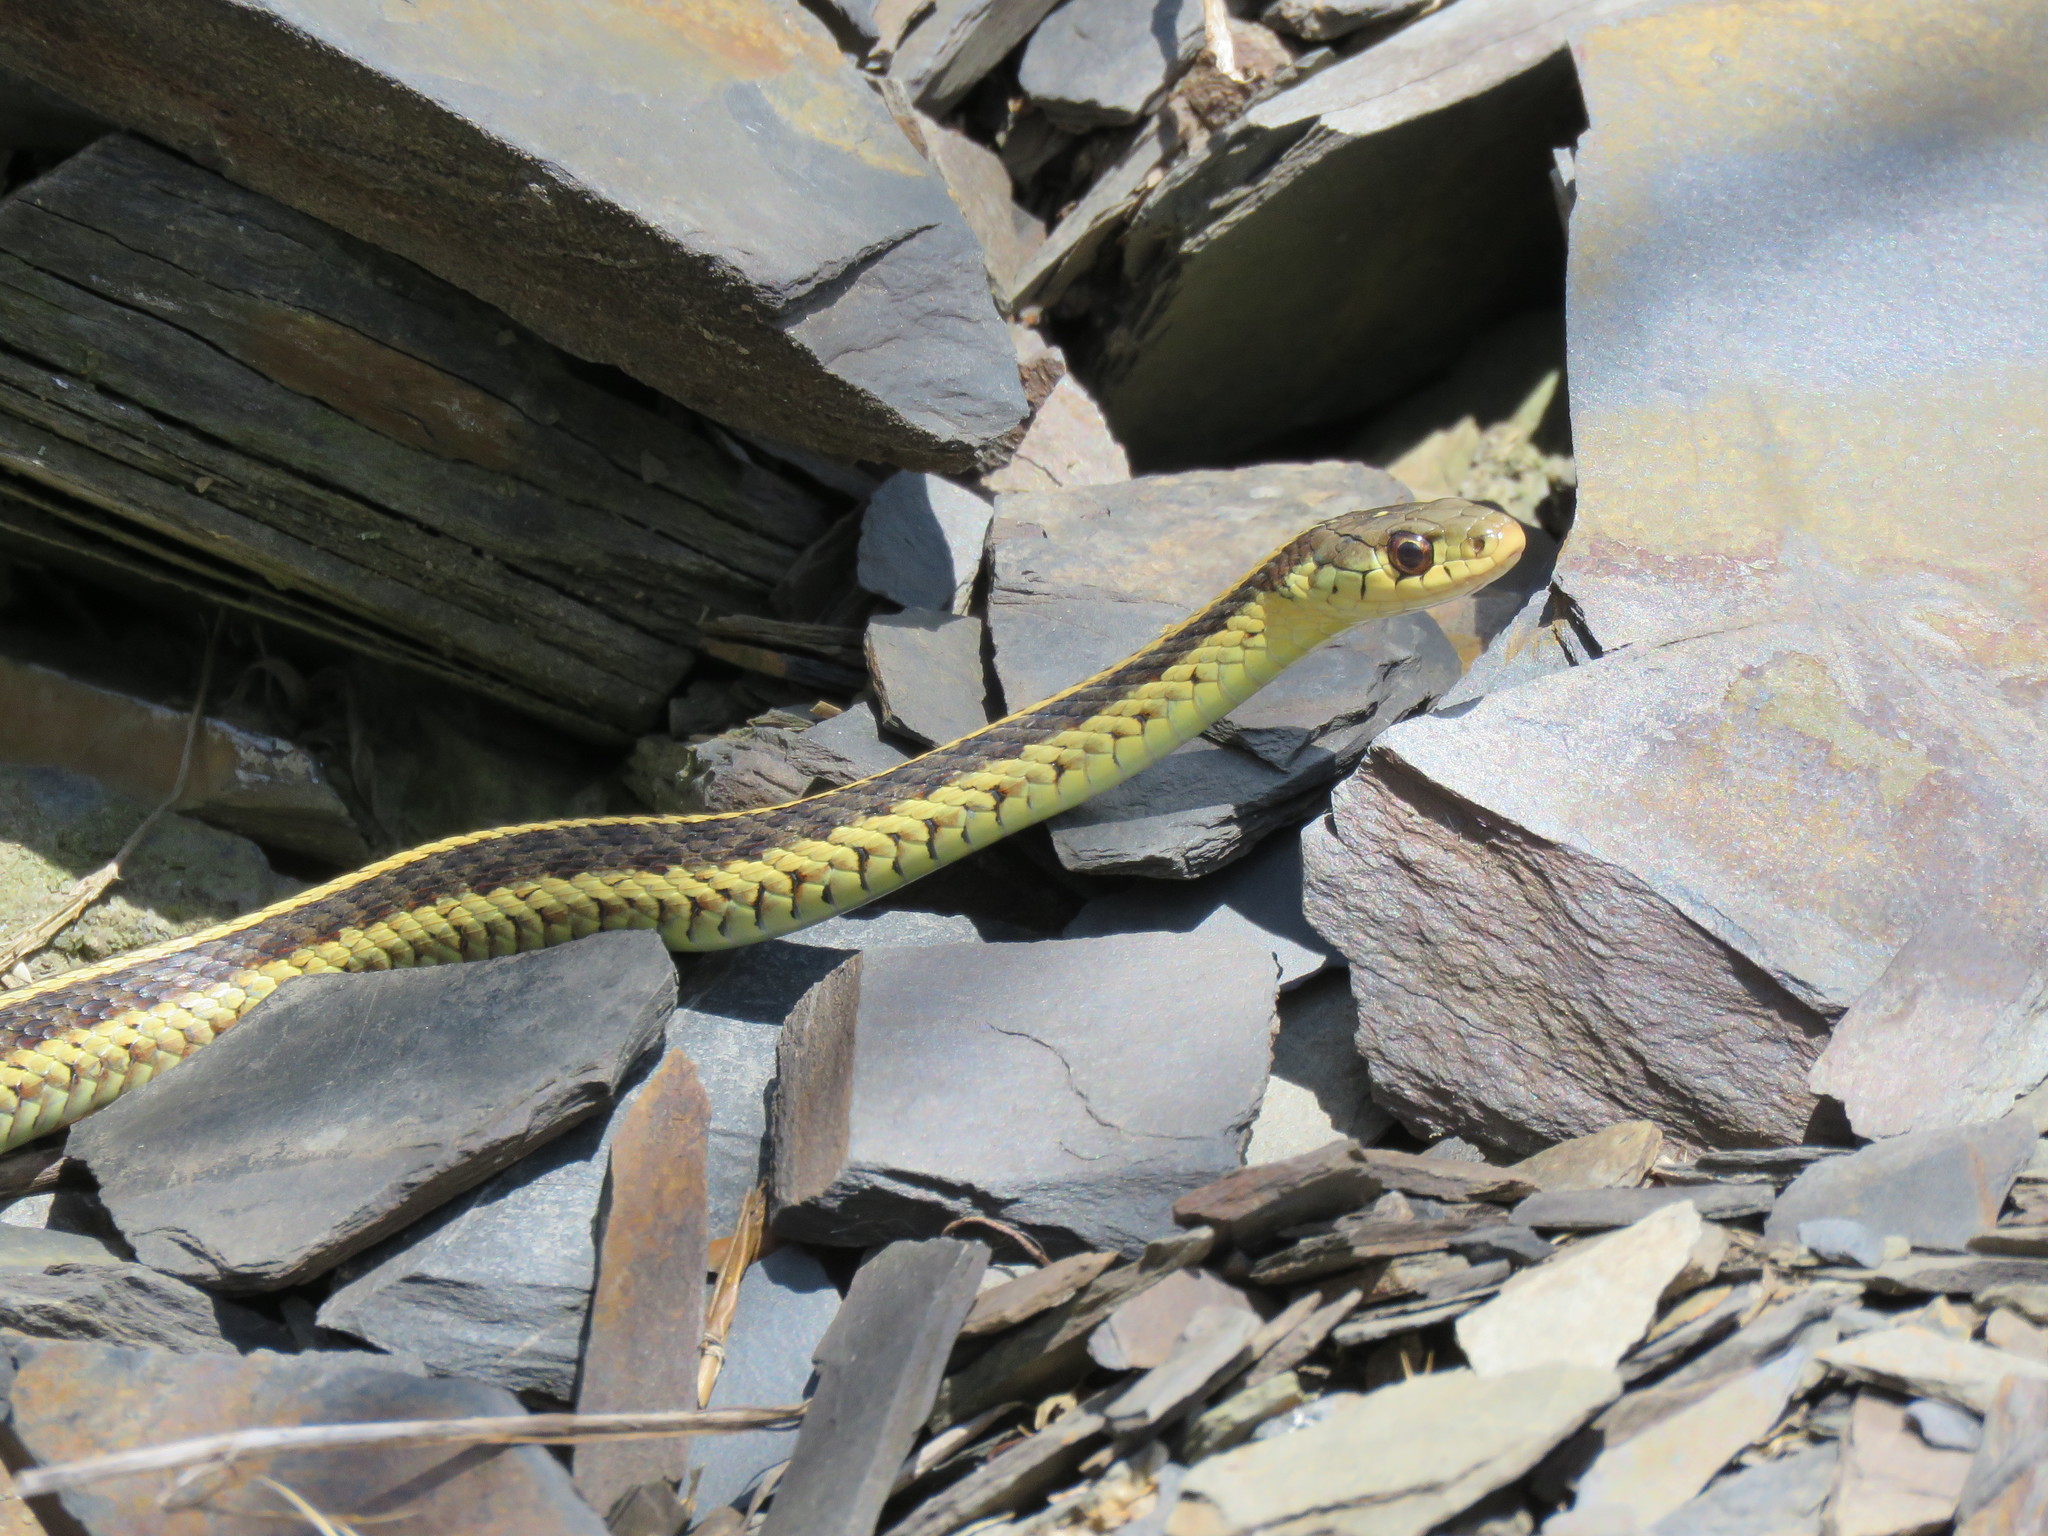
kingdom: Animalia
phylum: Chordata
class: Squamata
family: Colubridae
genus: Thamnophis
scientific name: Thamnophis sirtalis
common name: Common garter snake
